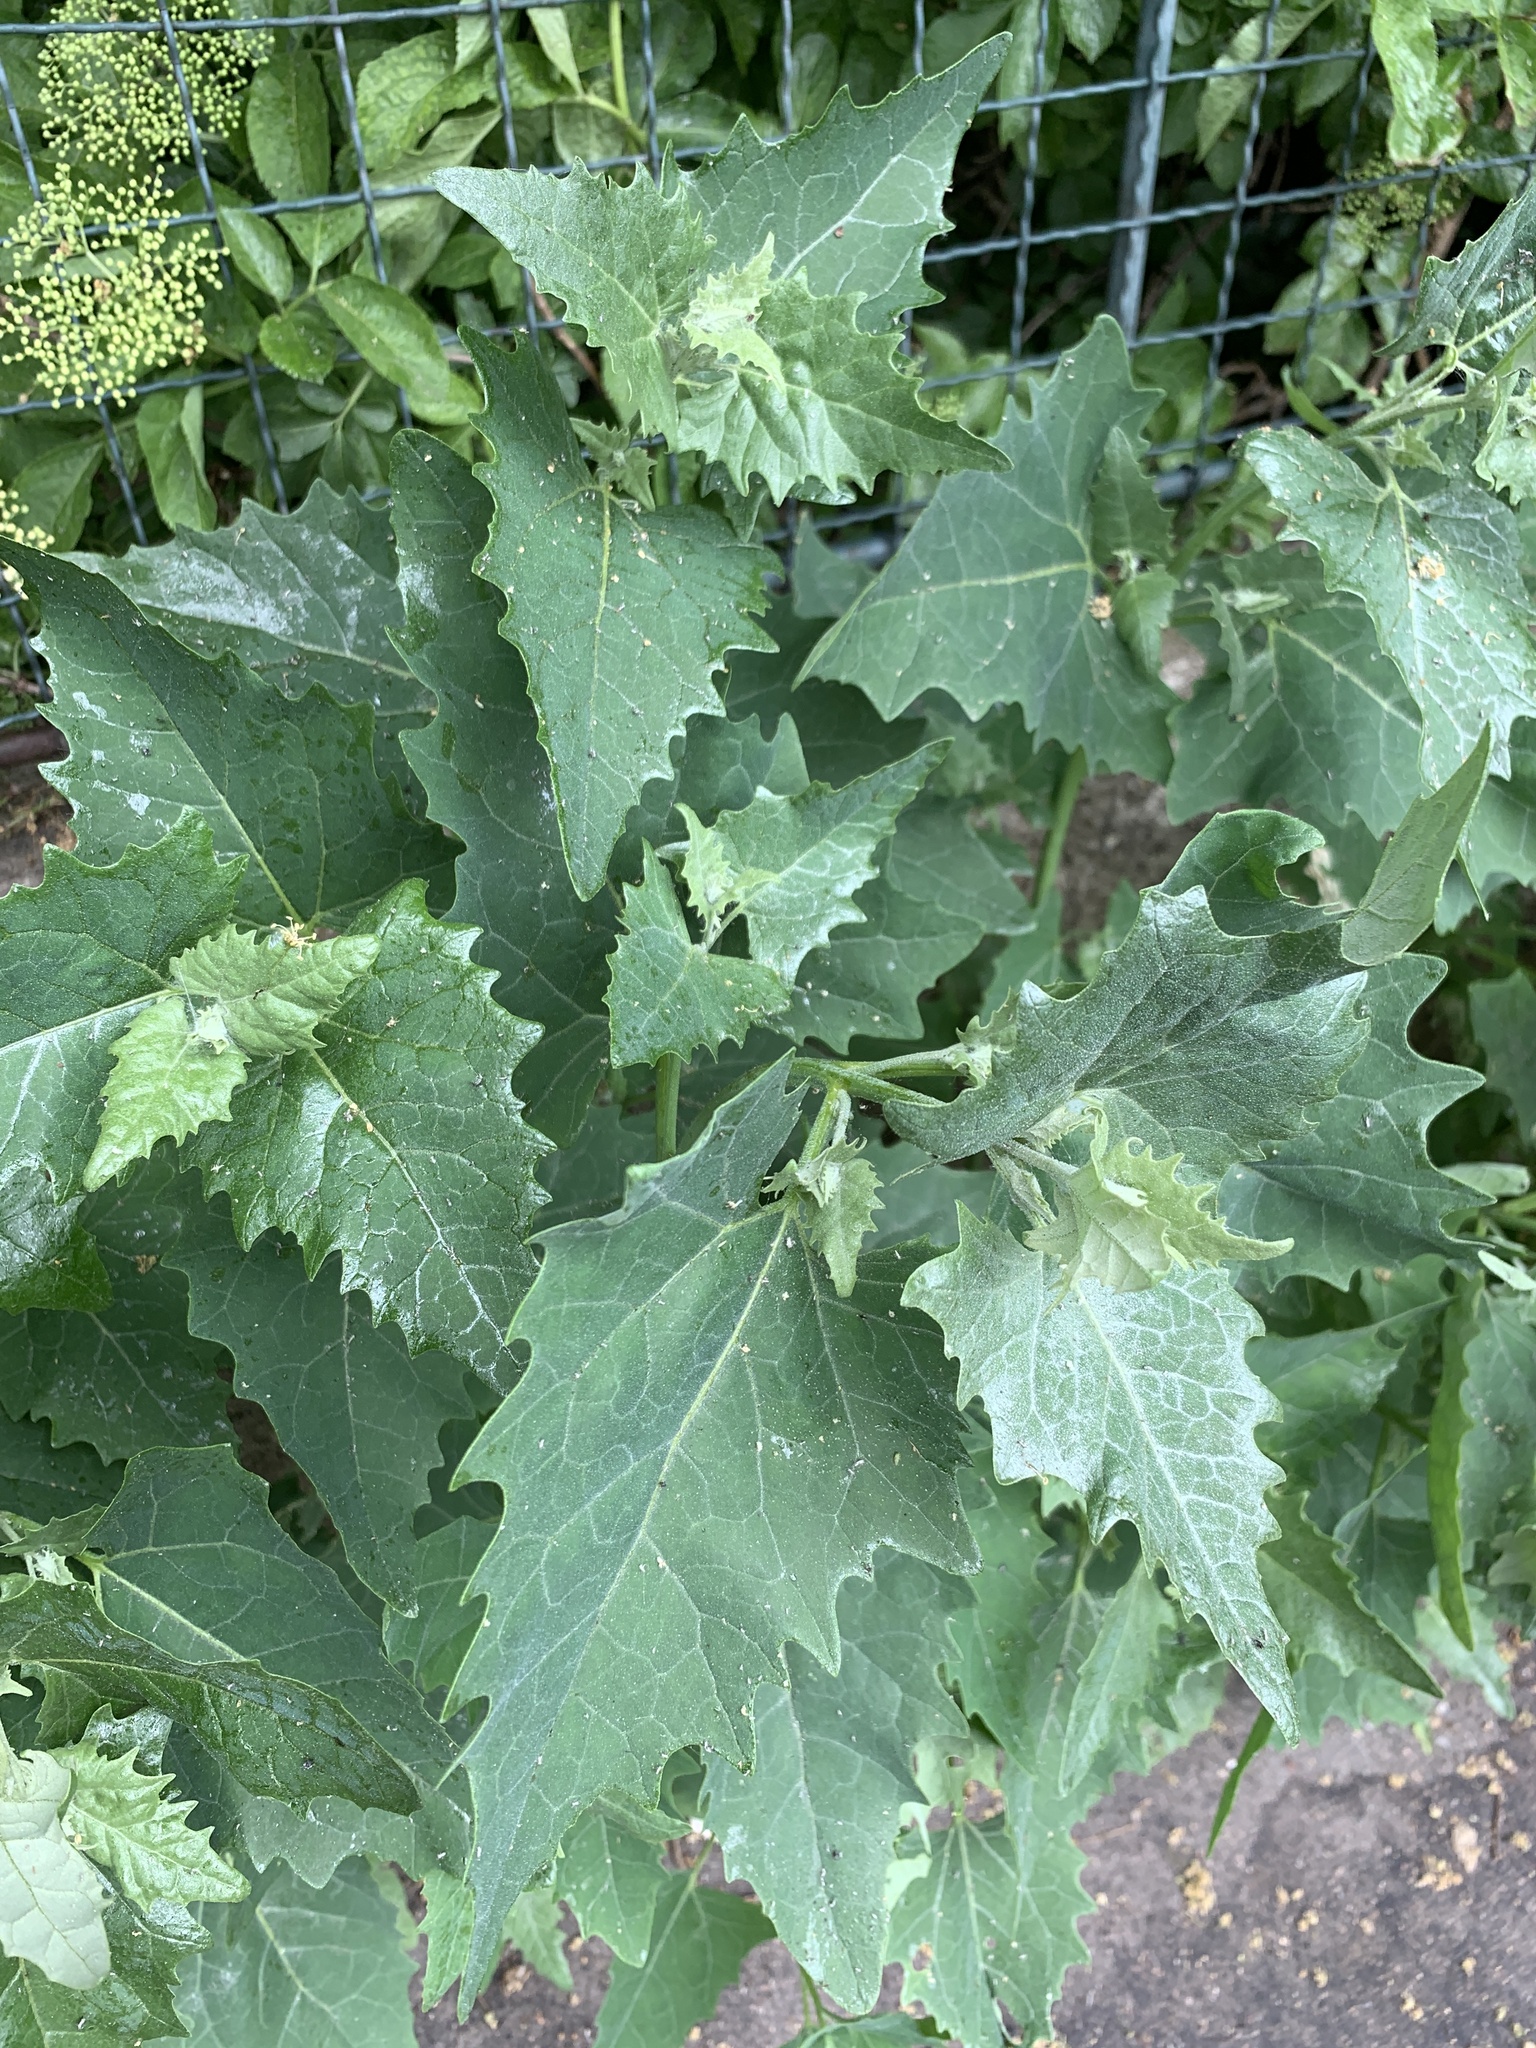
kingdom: Plantae
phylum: Tracheophyta
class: Magnoliopsida
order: Caryophyllales
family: Amaranthaceae
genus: Atriplex
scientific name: Atriplex sagittata
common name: Purple orache
